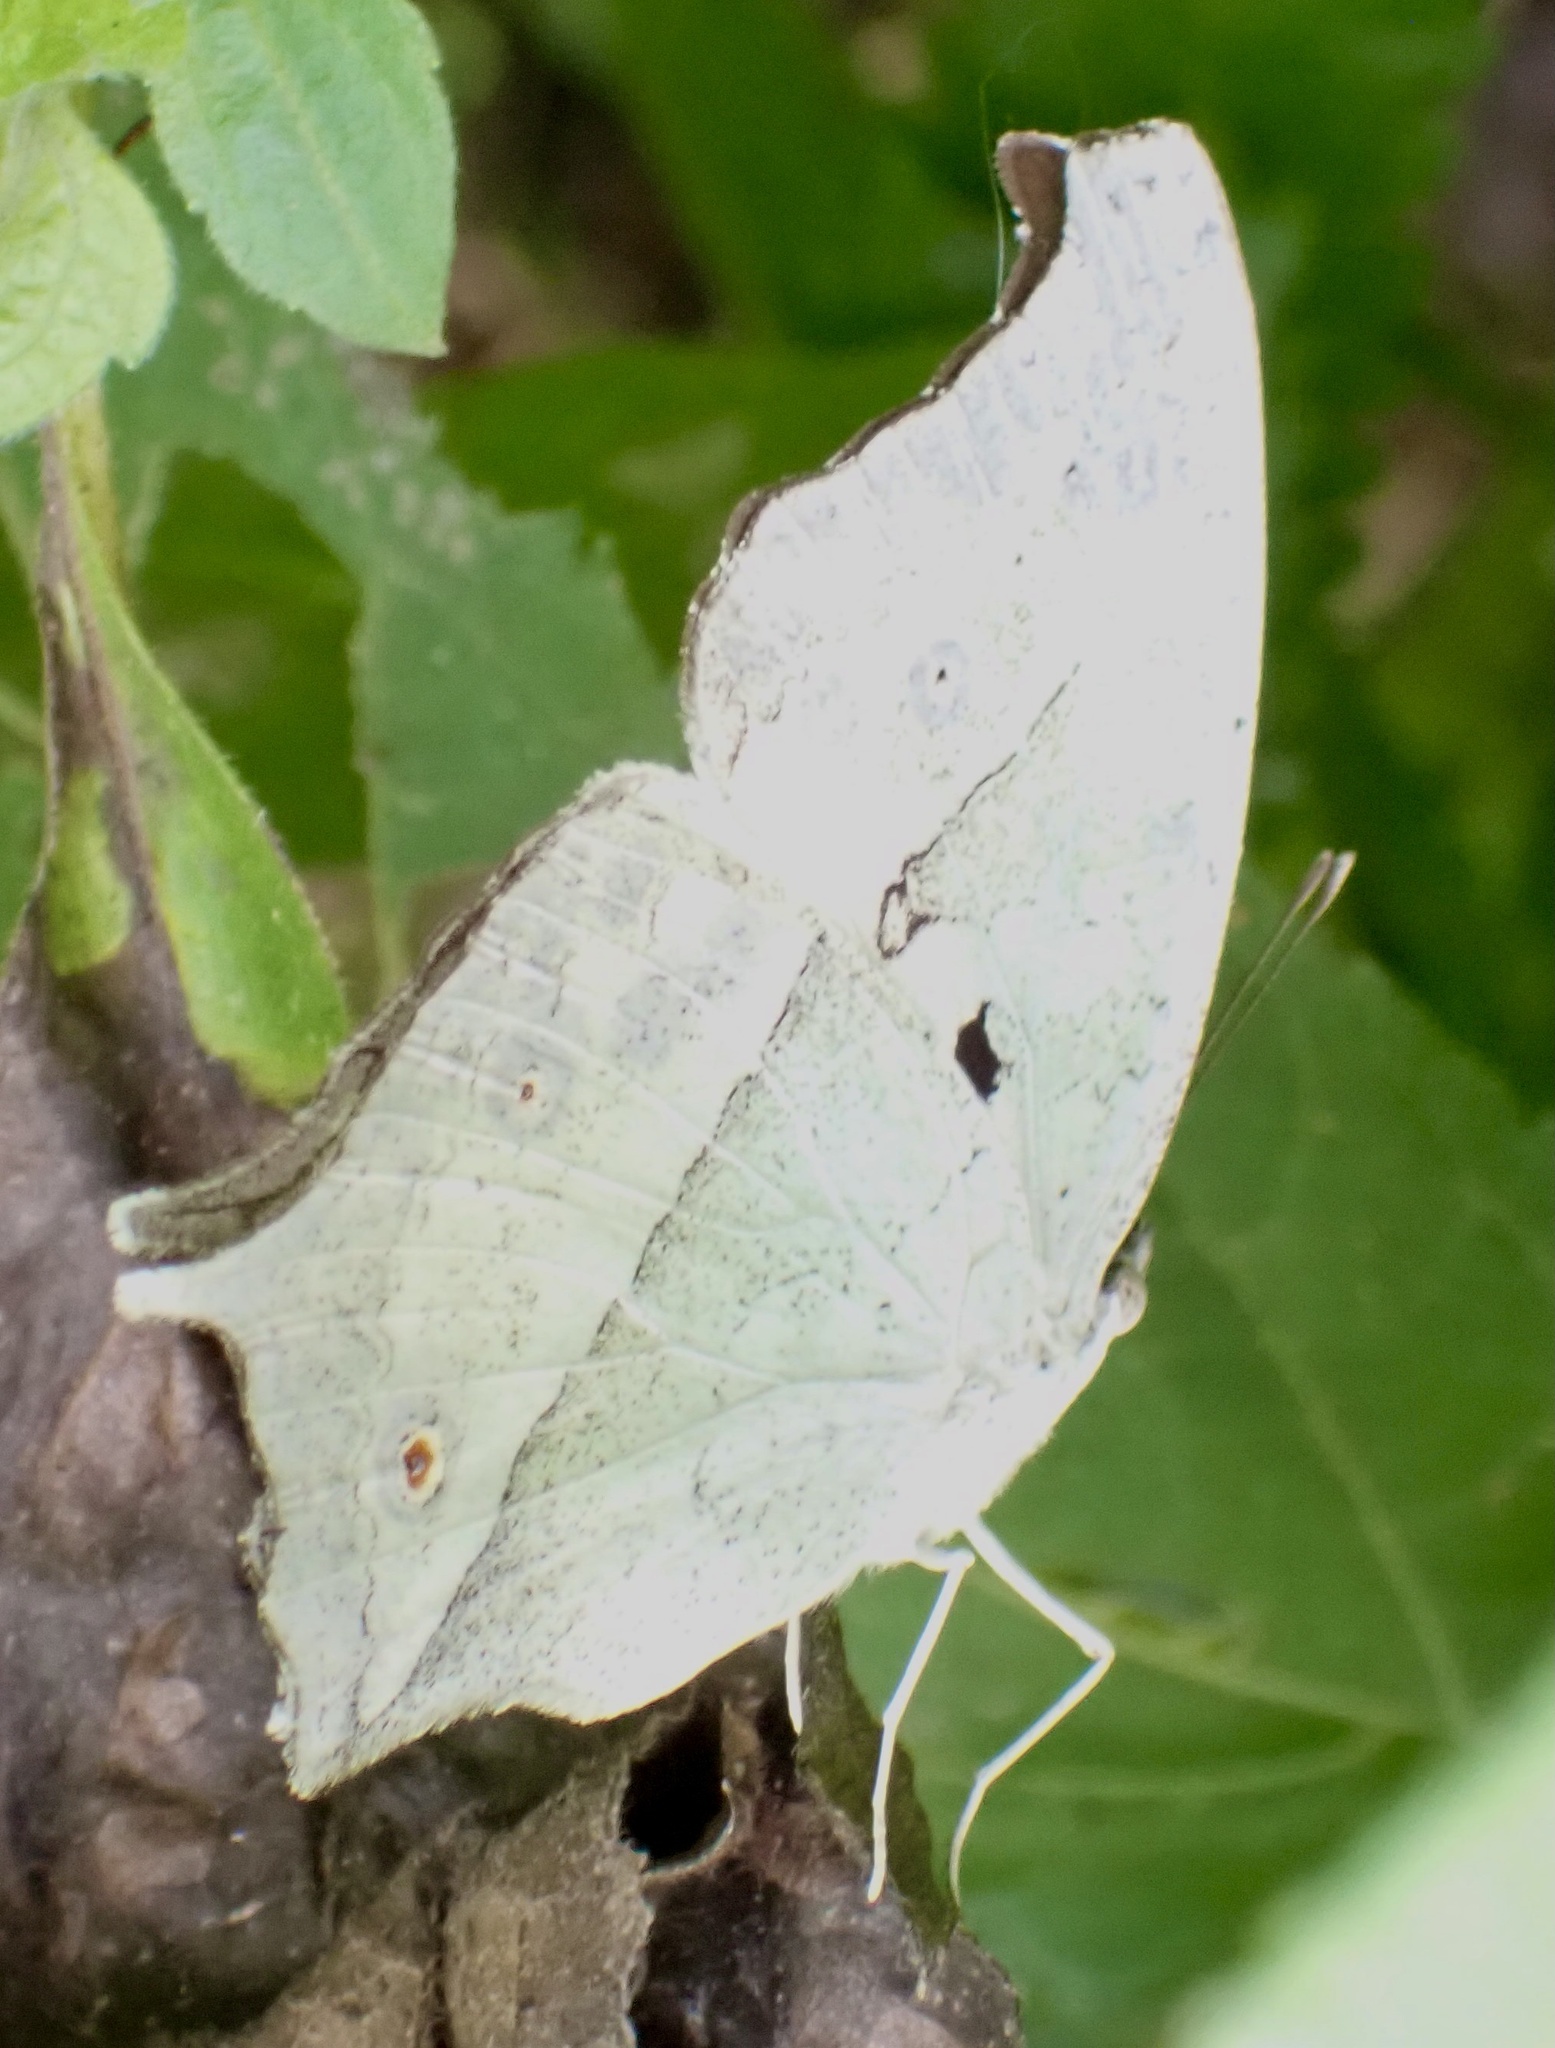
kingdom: Animalia
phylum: Arthropoda
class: Insecta
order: Lepidoptera
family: Nymphalidae
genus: Salamis
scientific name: Salamis Protogoniomorpha parhassus
